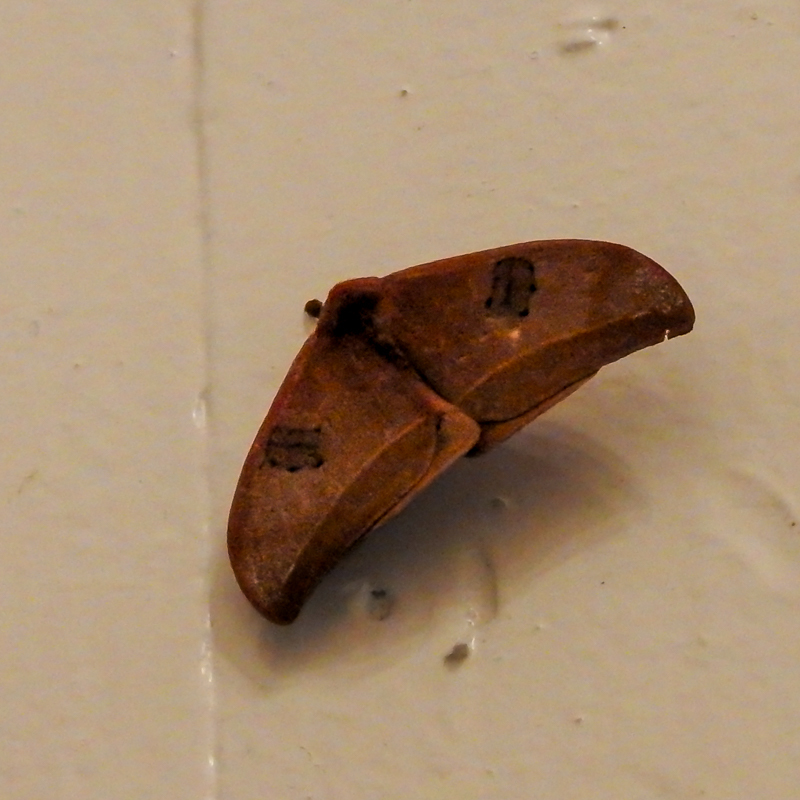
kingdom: Animalia
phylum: Arthropoda
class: Insecta
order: Lepidoptera
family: Saturniidae
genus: Automeris
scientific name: Automeris midea
